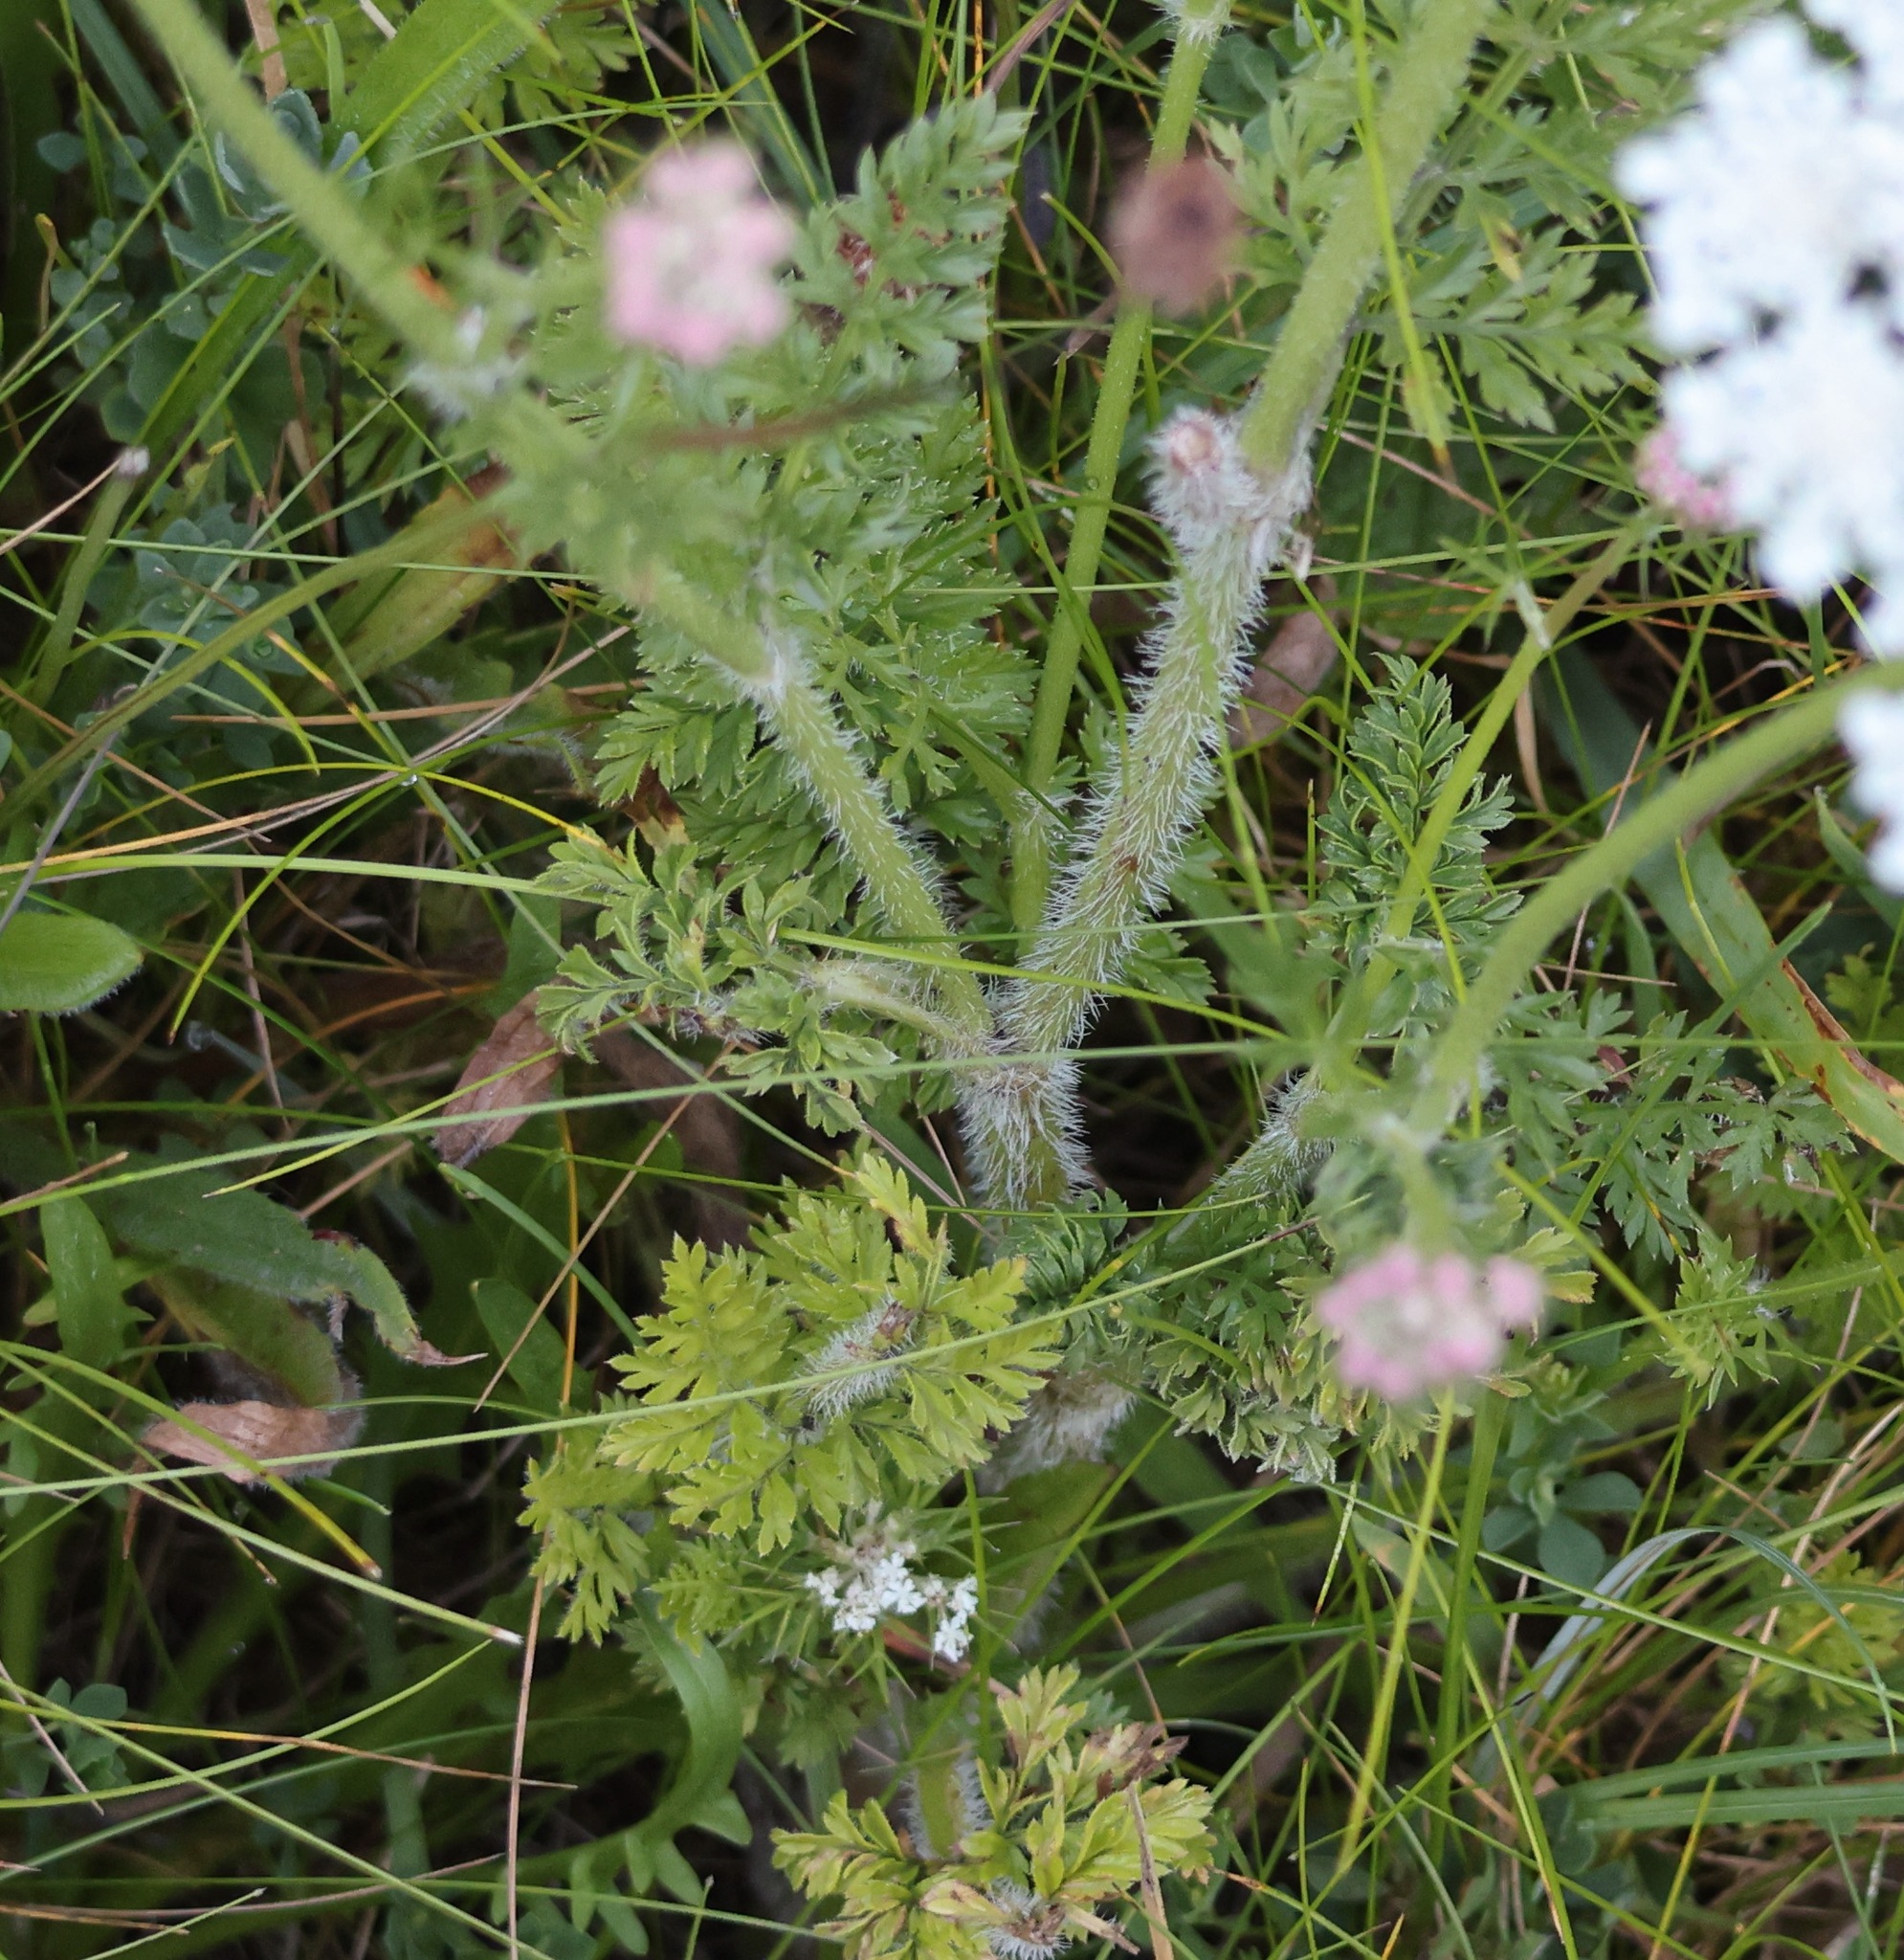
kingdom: Plantae
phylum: Tracheophyta
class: Magnoliopsida
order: Apiales
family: Apiaceae
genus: Daucus
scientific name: Daucus carota
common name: Wild carrot
